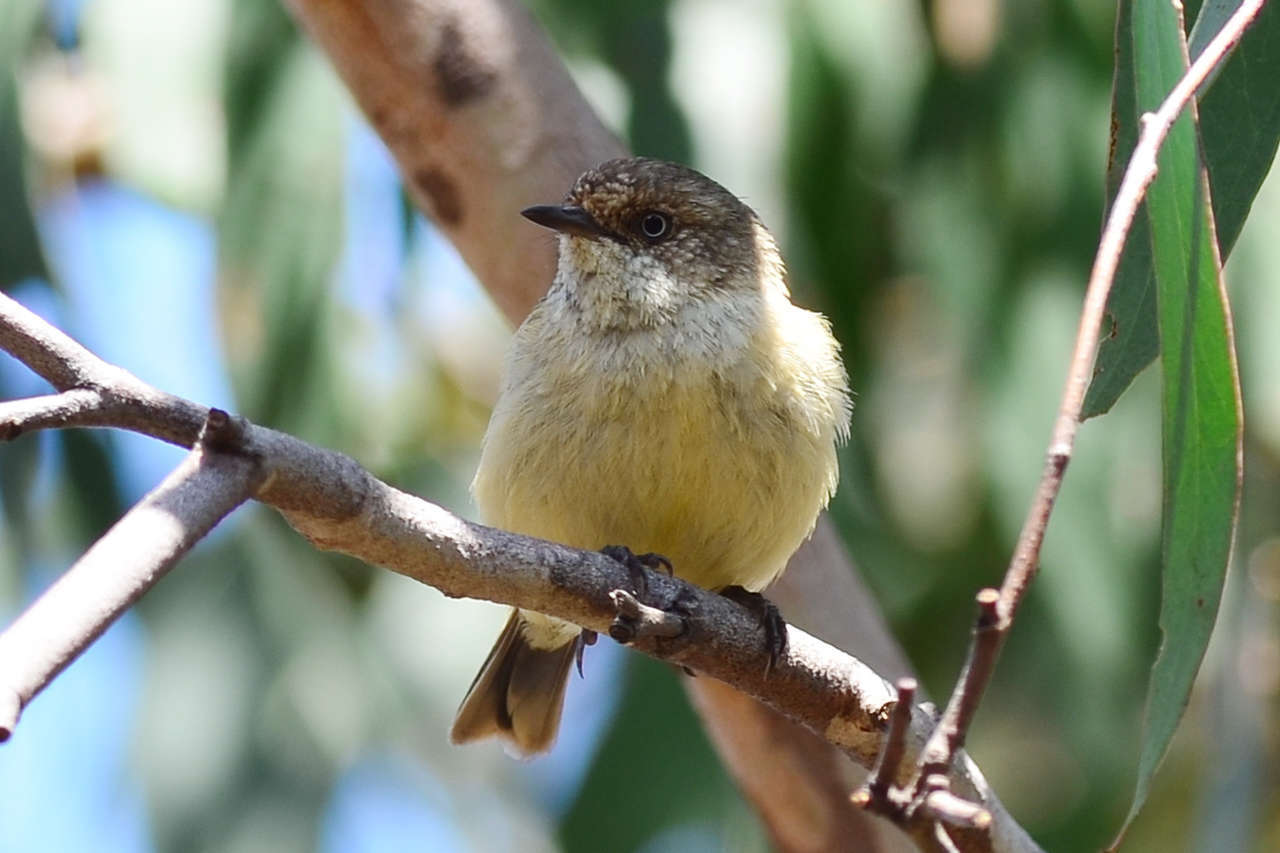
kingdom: Animalia
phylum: Chordata
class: Aves
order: Passeriformes
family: Acanthizidae
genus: Acanthiza
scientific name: Acanthiza reguloides
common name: Buff-rumped thornbill
